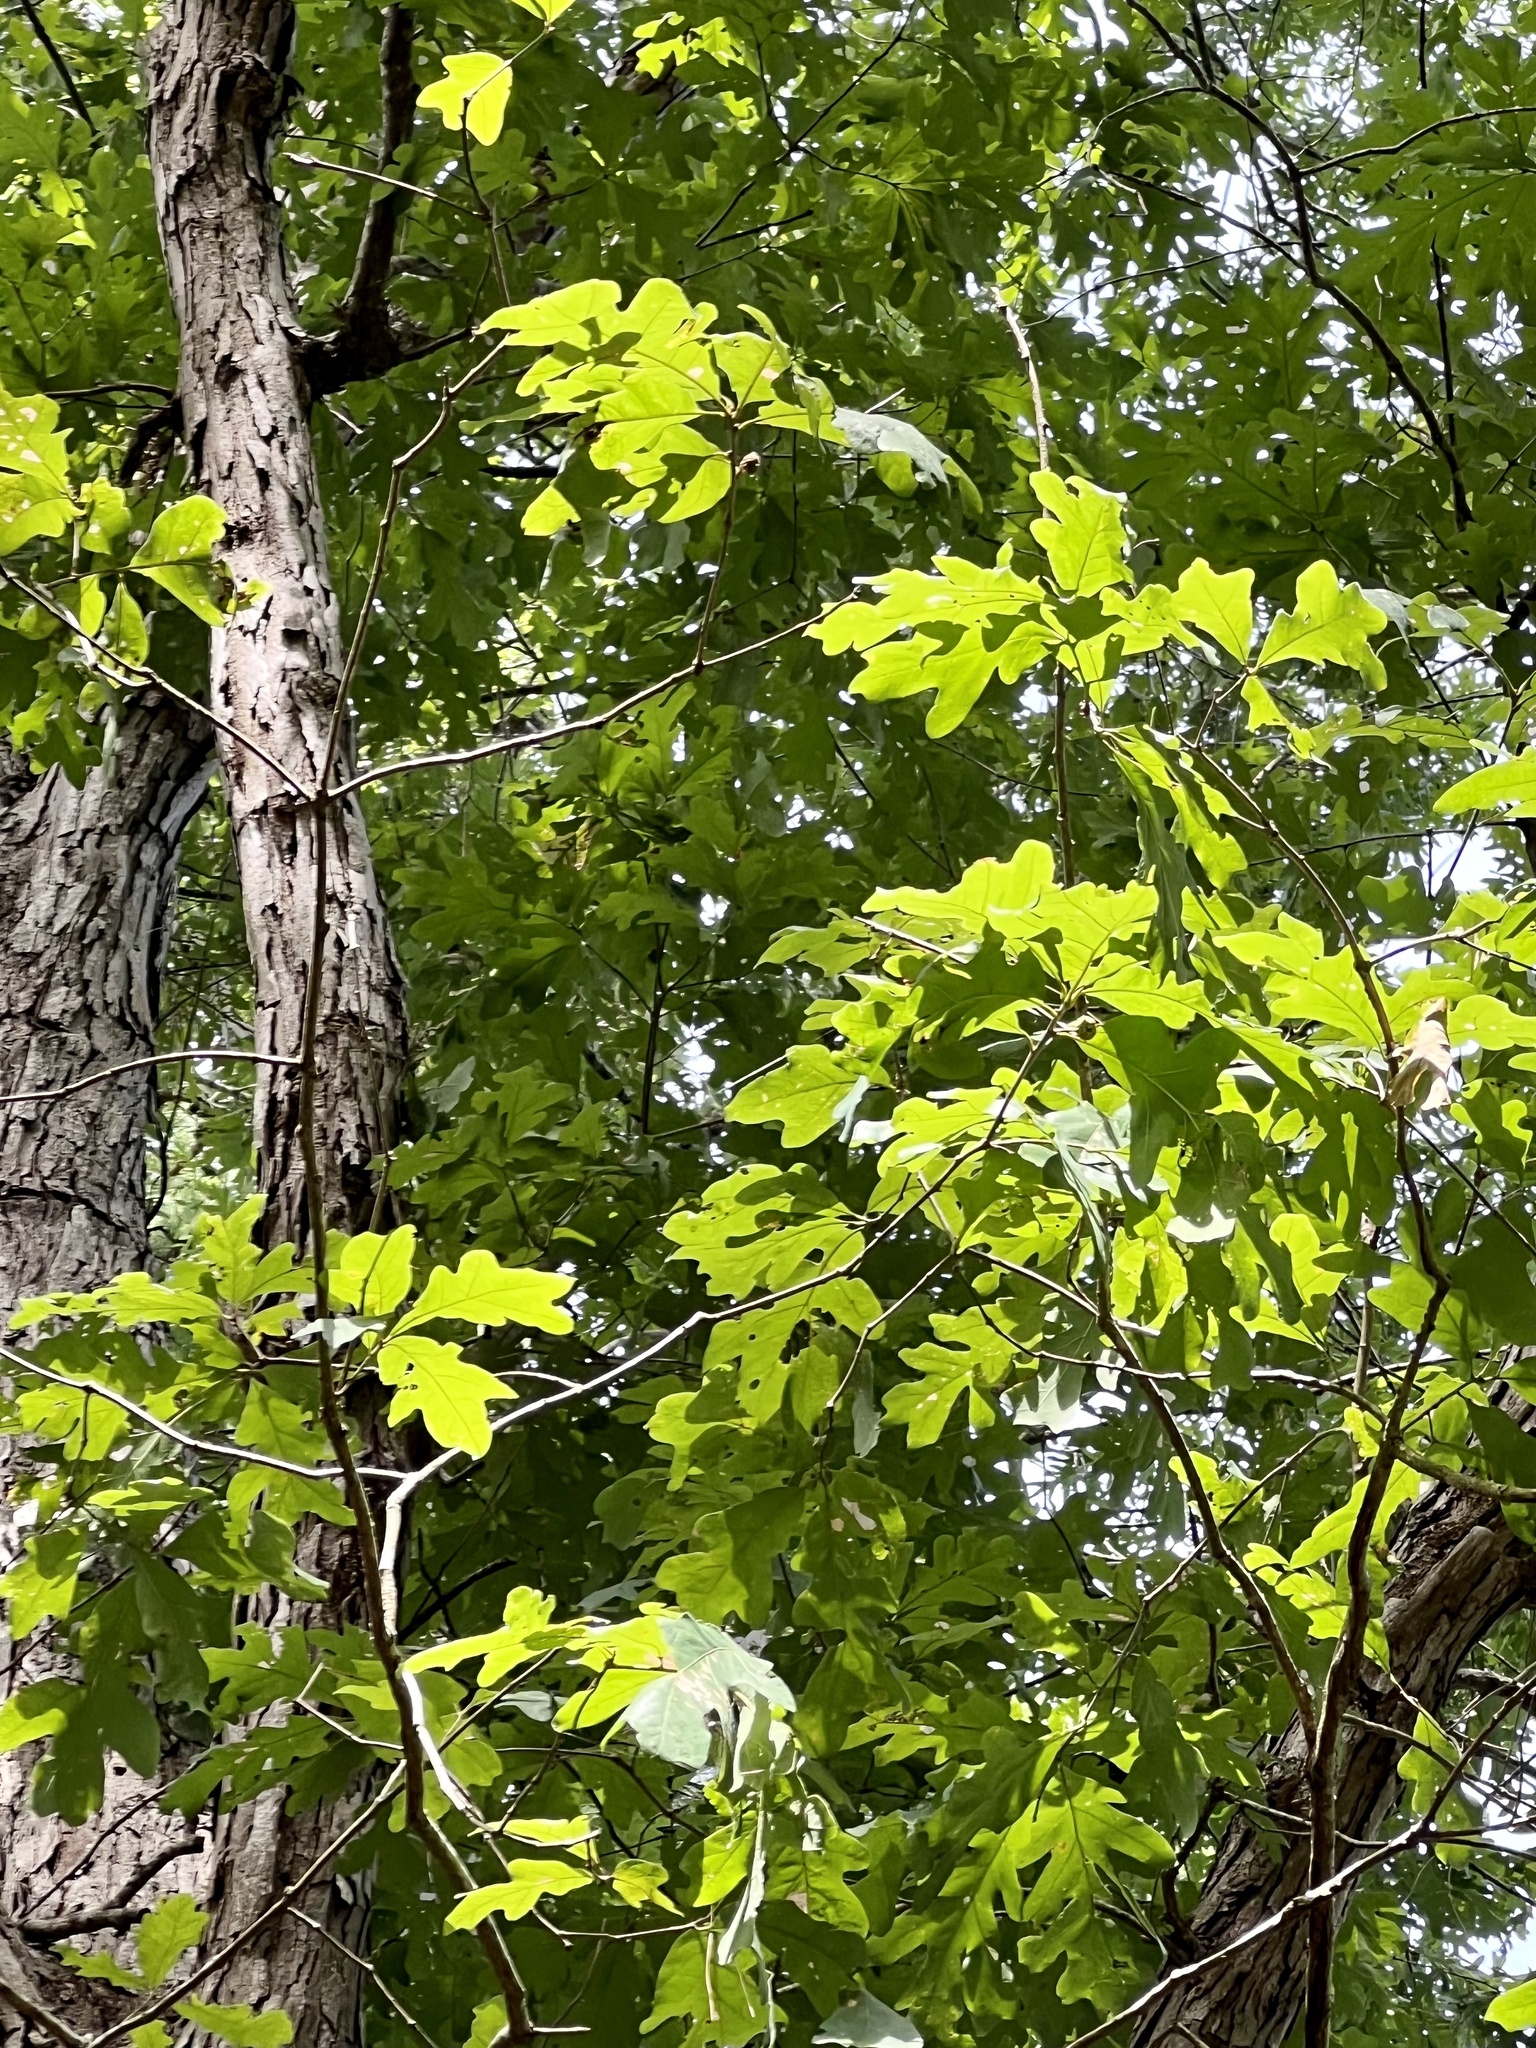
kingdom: Plantae
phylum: Tracheophyta
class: Magnoliopsida
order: Fagales
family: Fagaceae
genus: Quercus
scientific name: Quercus alba
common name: White oak
